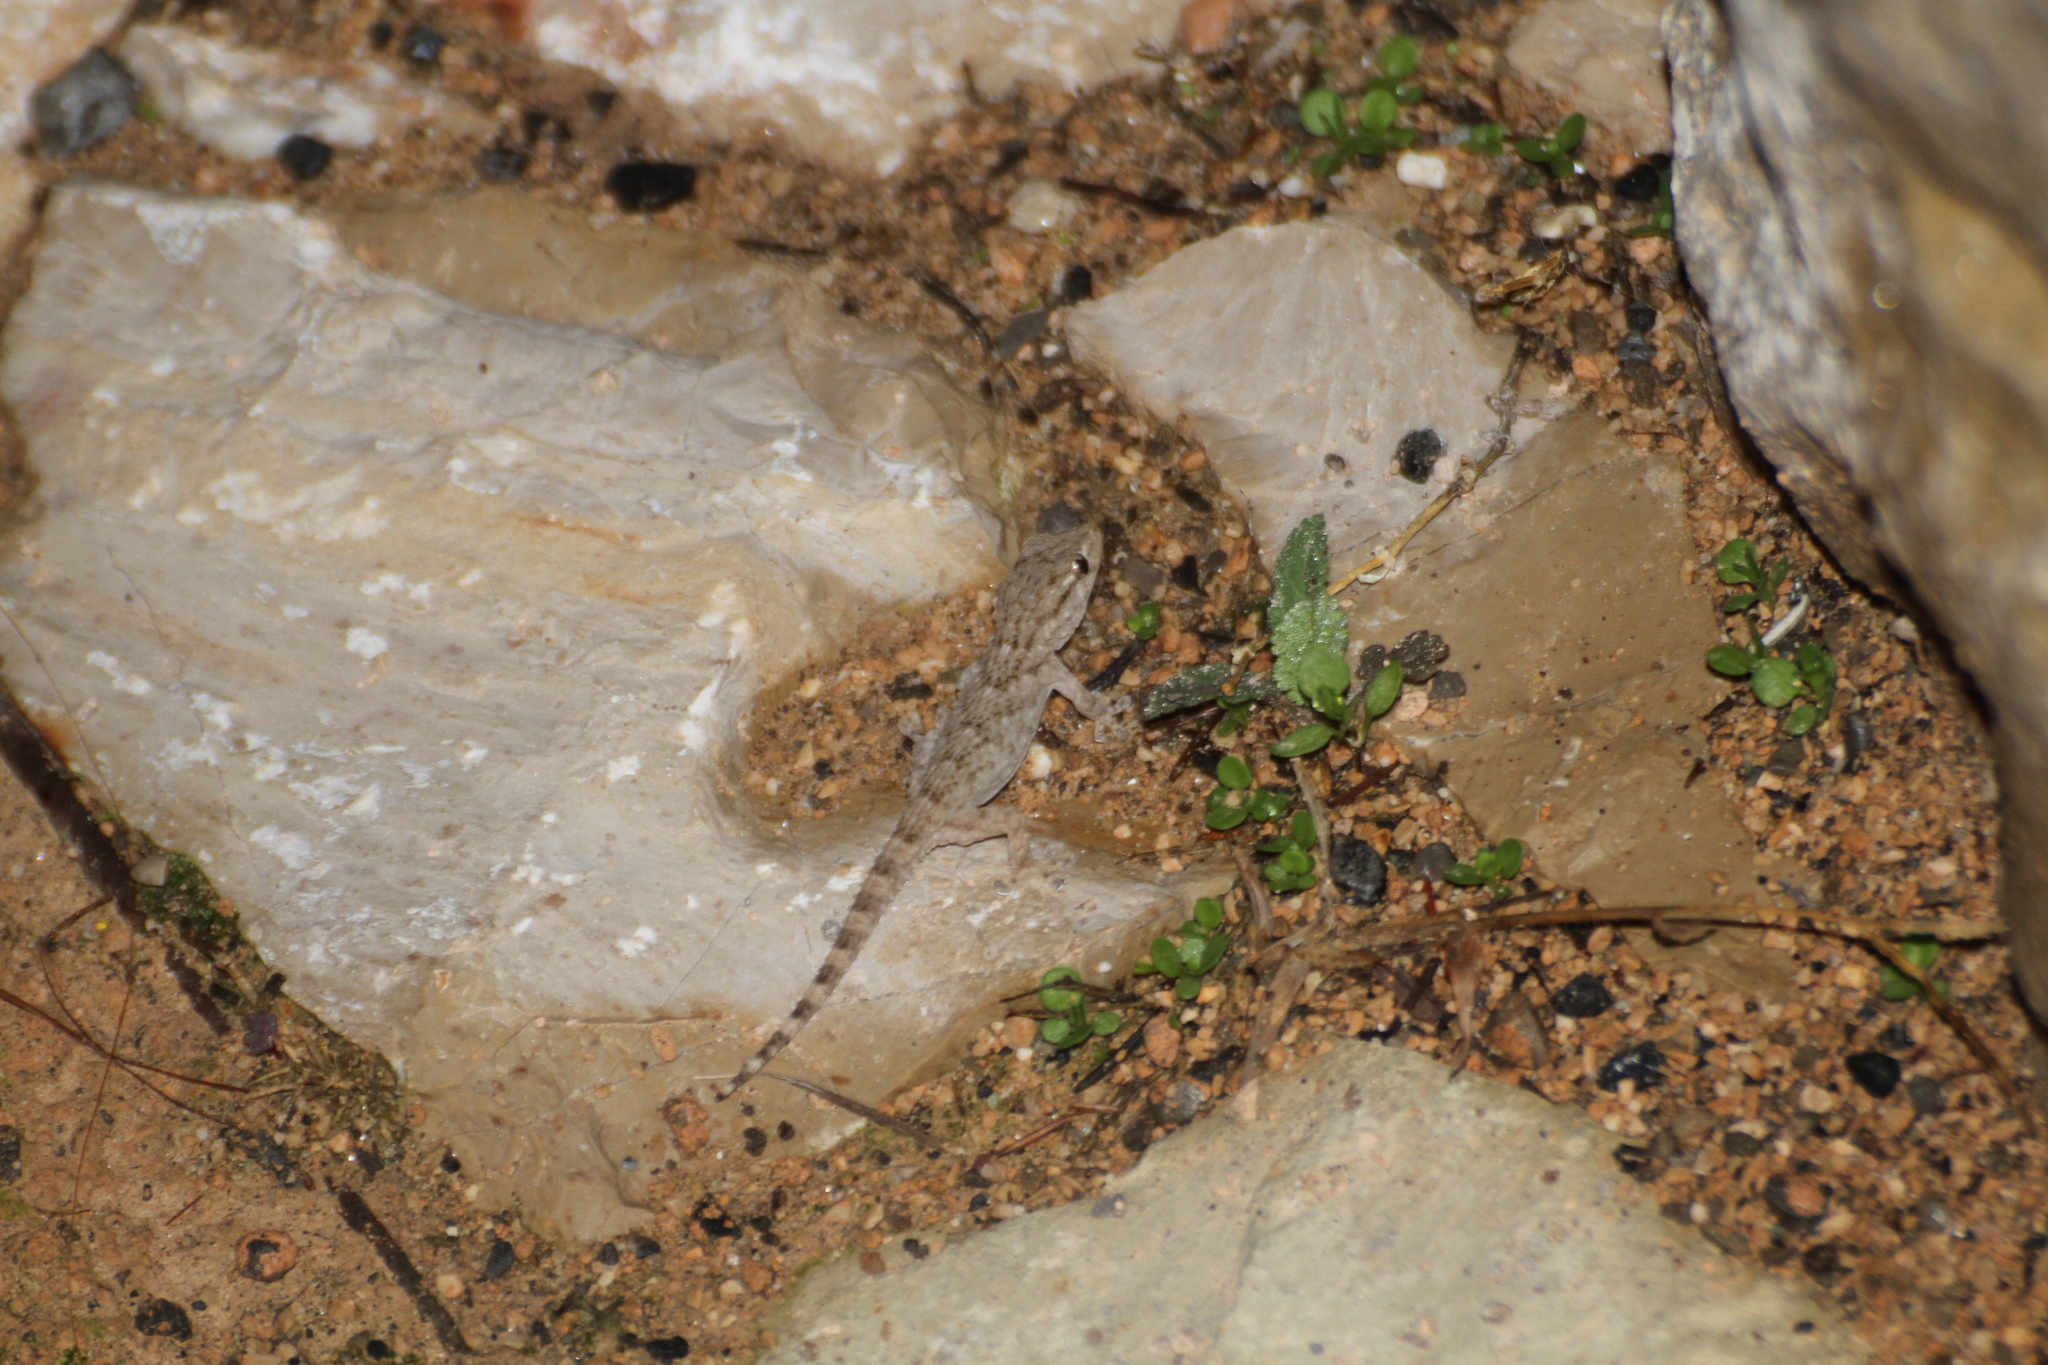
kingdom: Animalia
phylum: Chordata
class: Squamata
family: Phyllodactylidae
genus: Tarentola
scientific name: Tarentola mauritanica
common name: Moorish gecko
